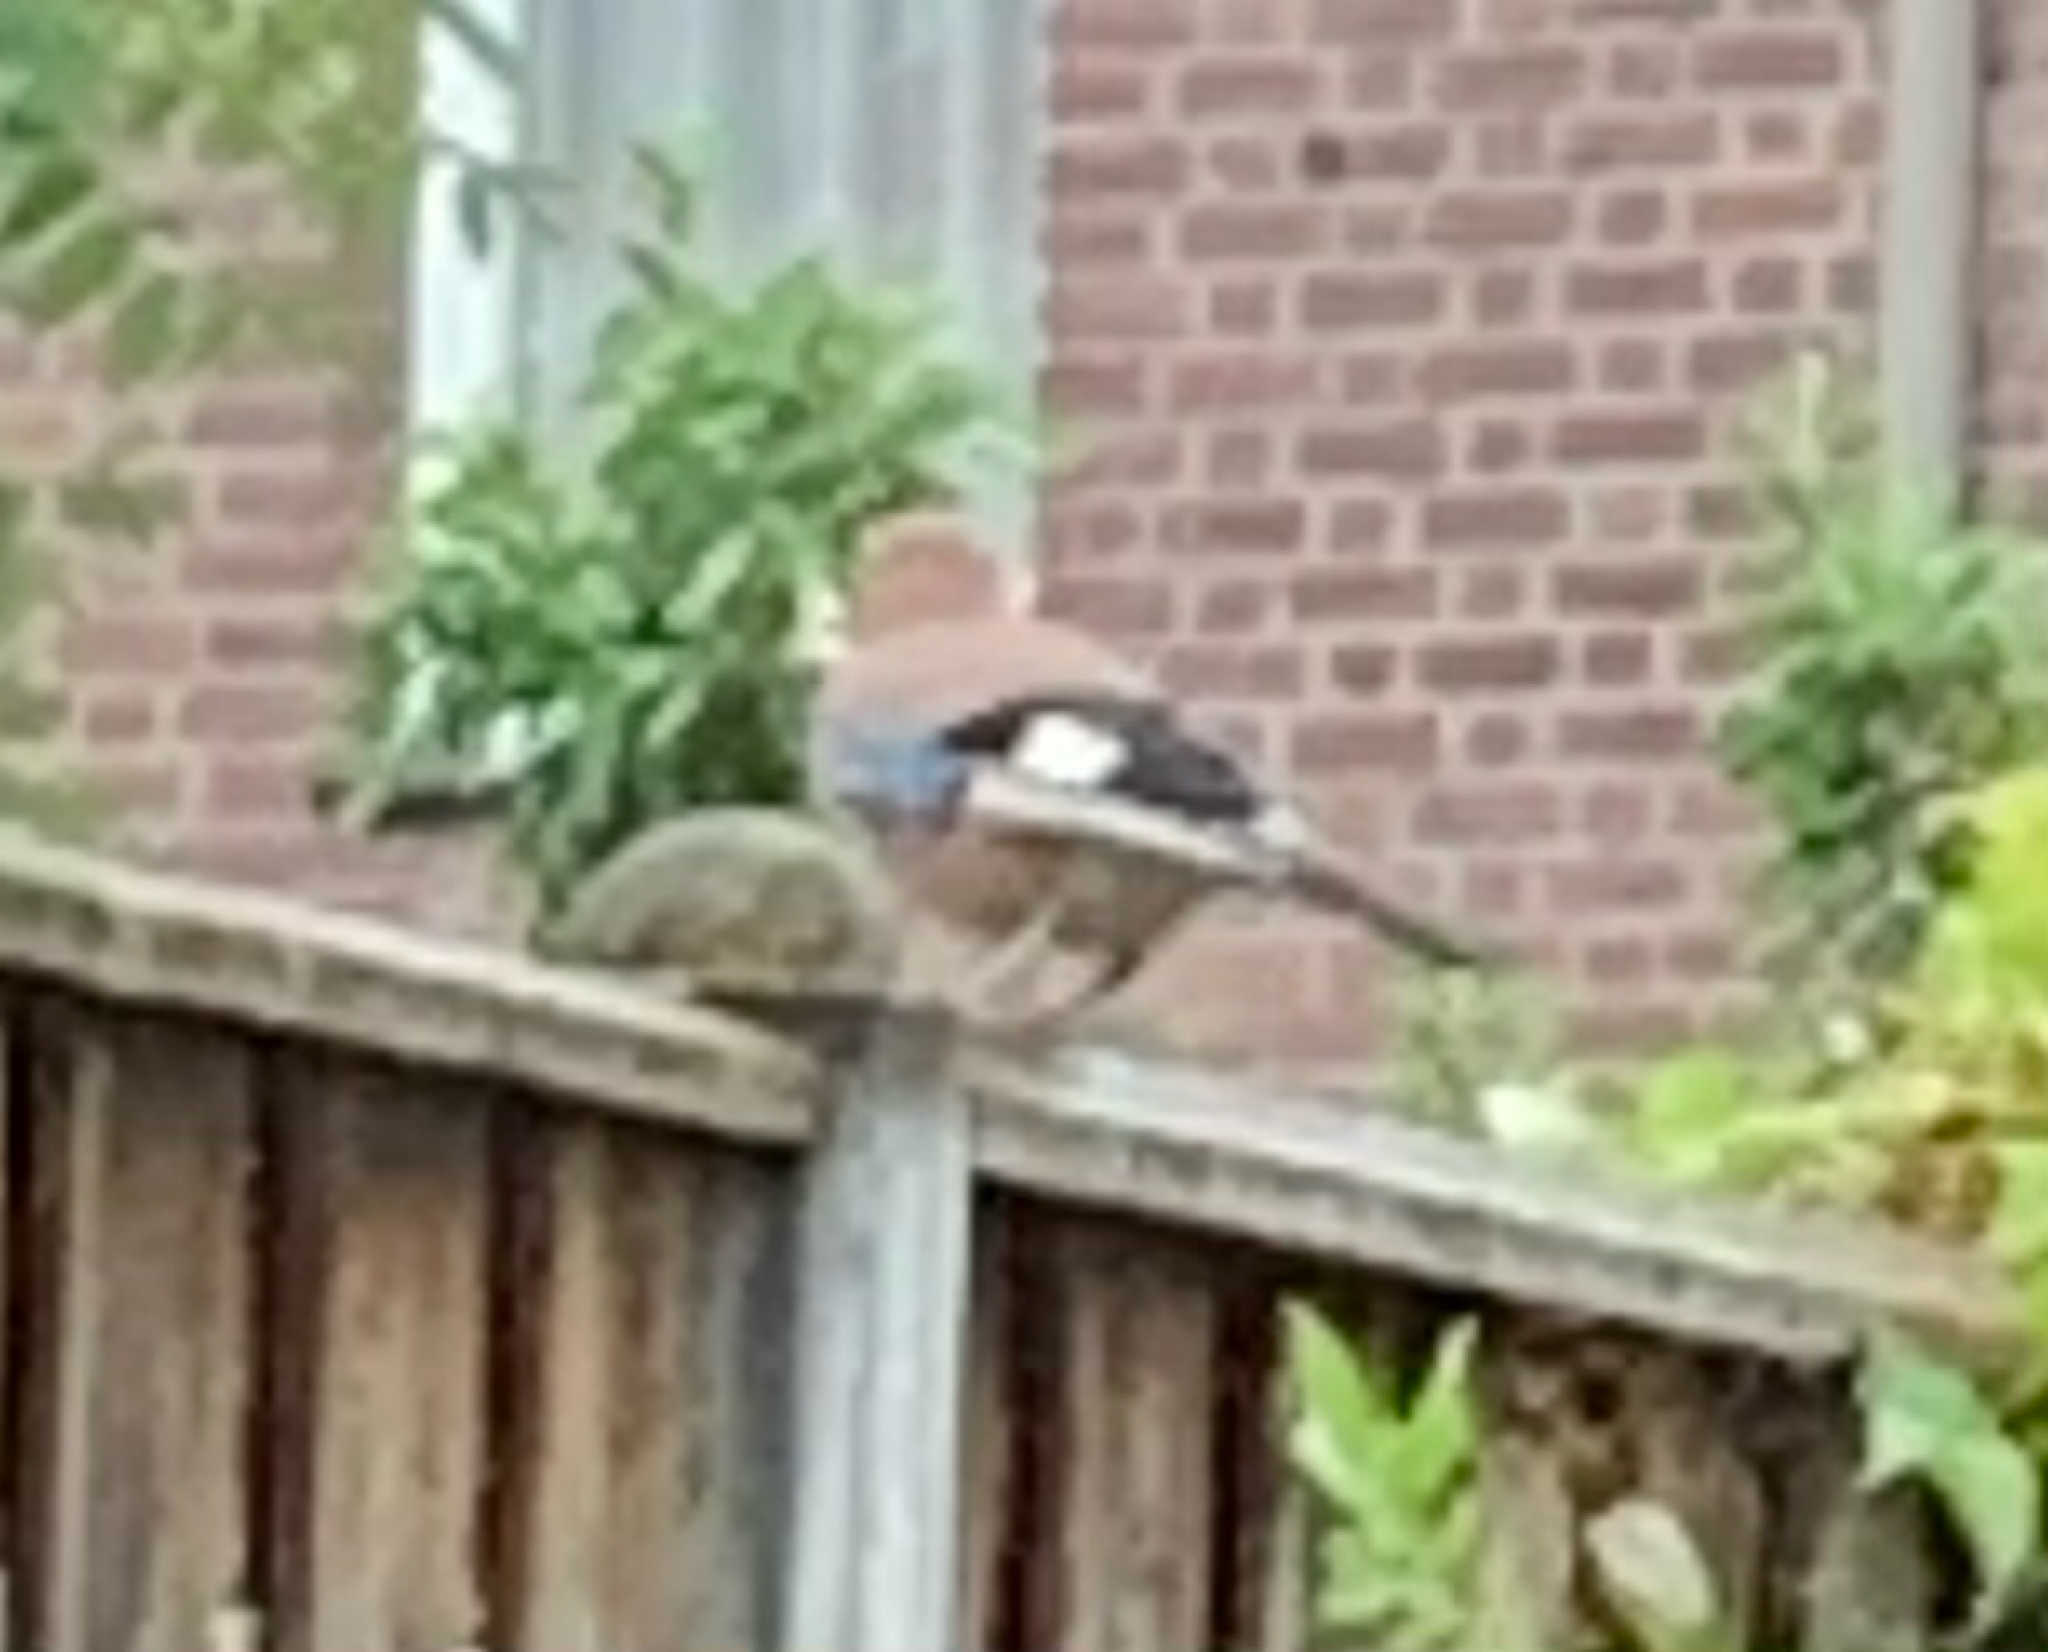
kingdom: Animalia
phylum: Chordata
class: Aves
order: Passeriformes
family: Corvidae
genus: Garrulus
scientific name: Garrulus glandarius
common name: Eurasian jay
